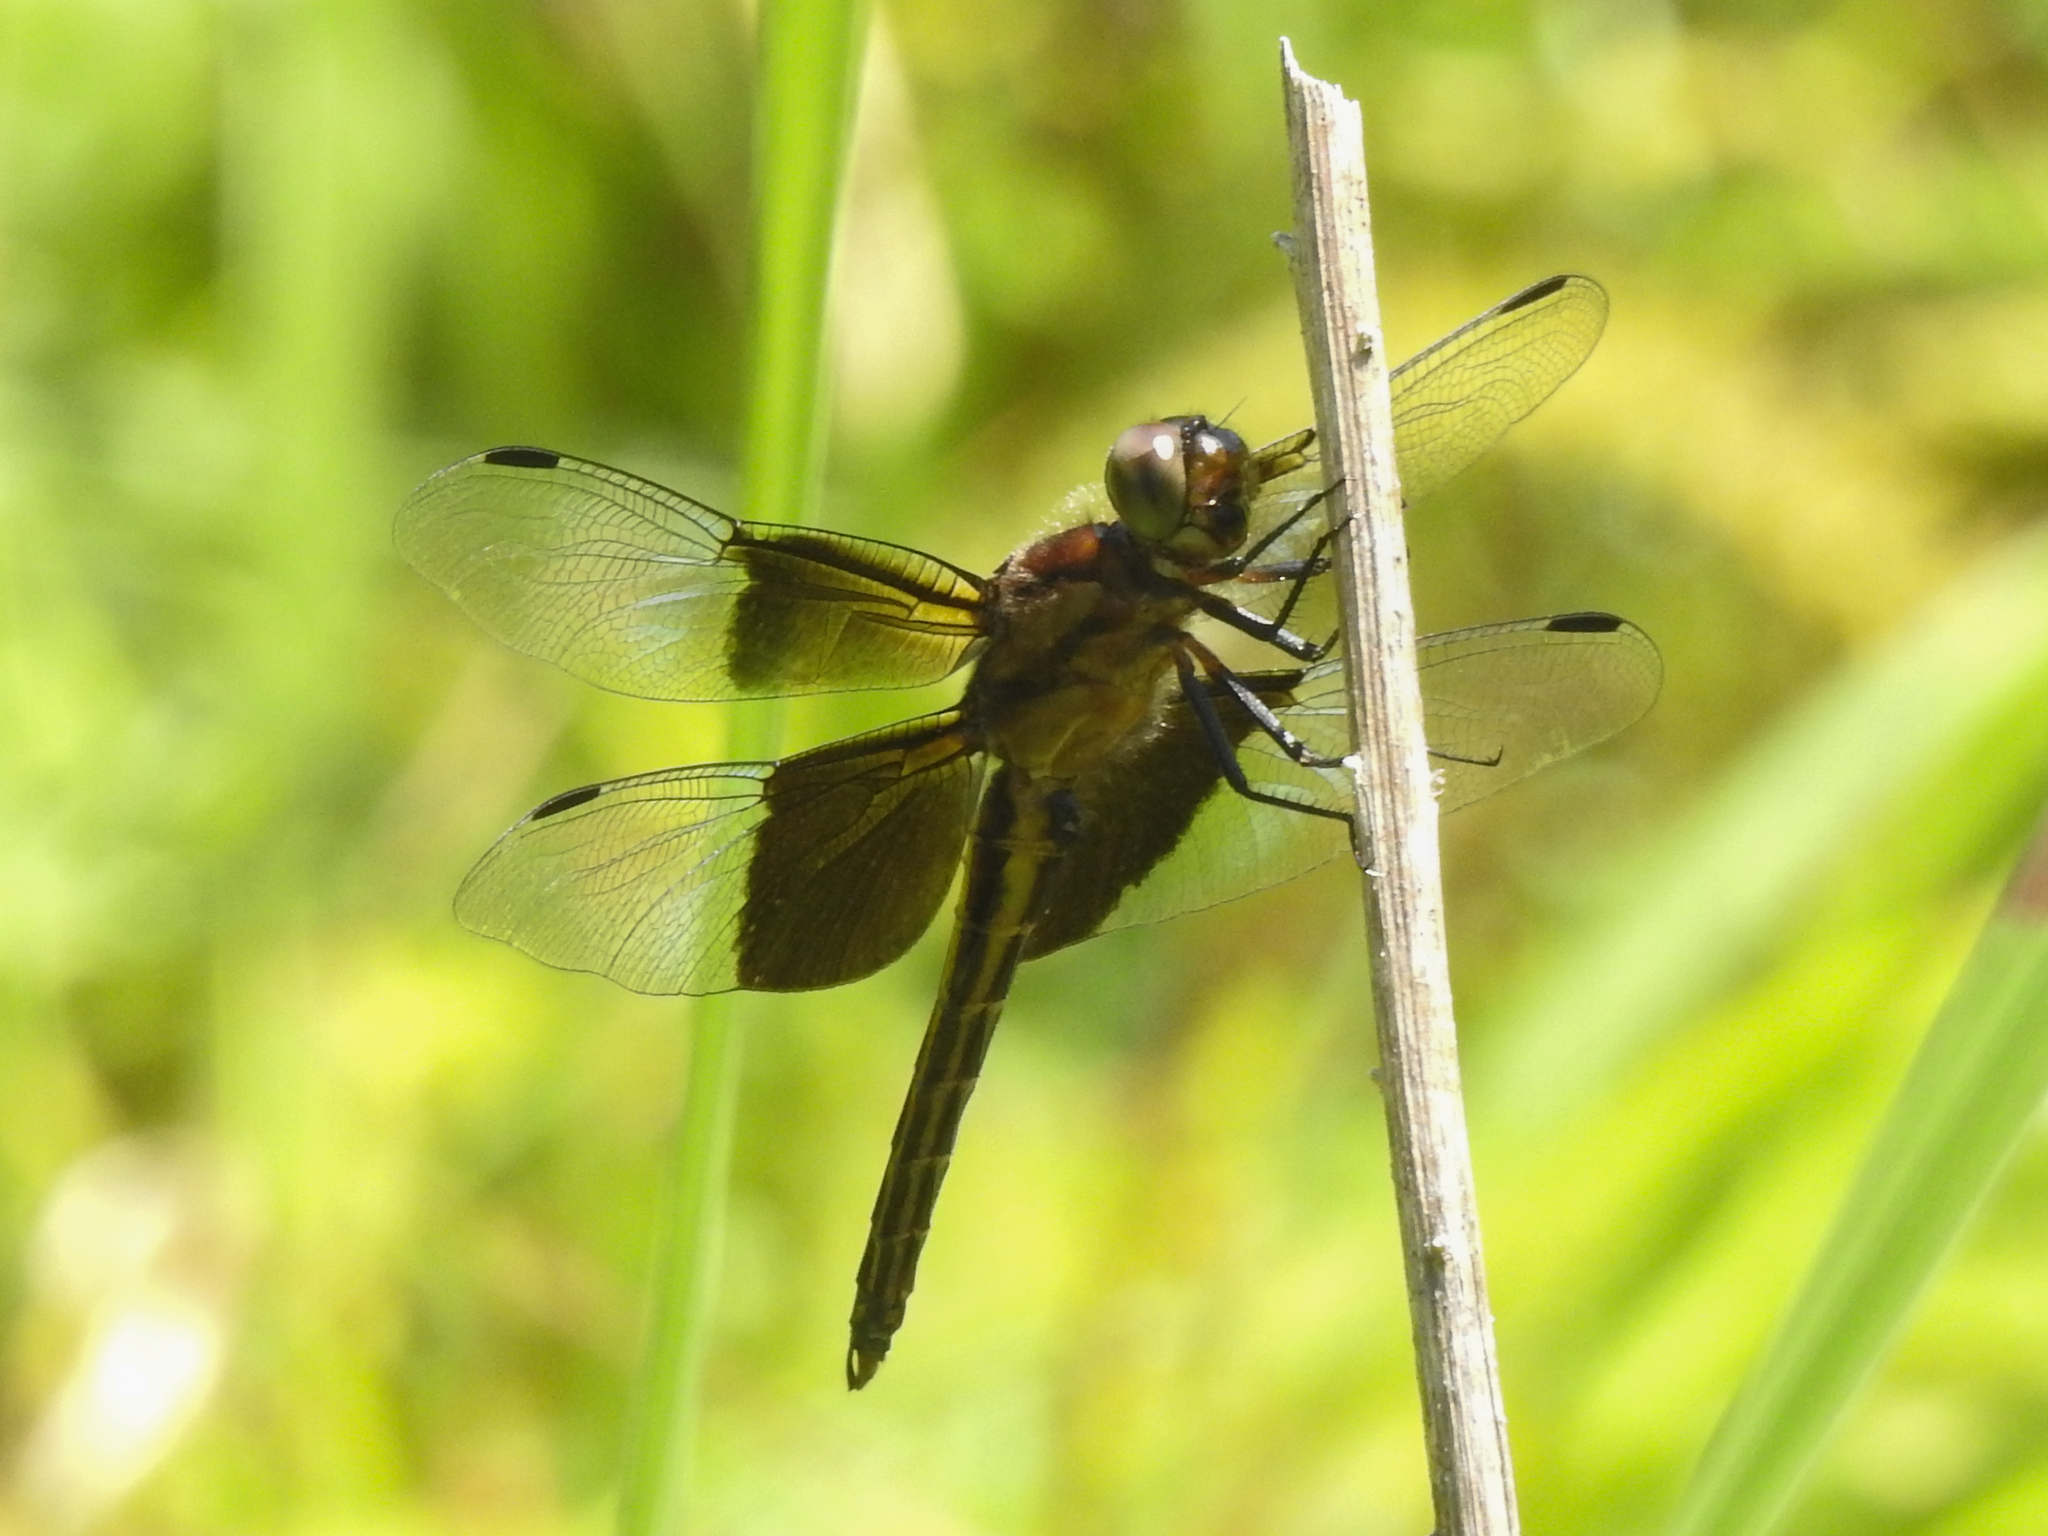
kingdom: Animalia
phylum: Arthropoda
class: Insecta
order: Odonata
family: Libellulidae
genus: Libellula
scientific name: Libellula luctuosa
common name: Widow skimmer
